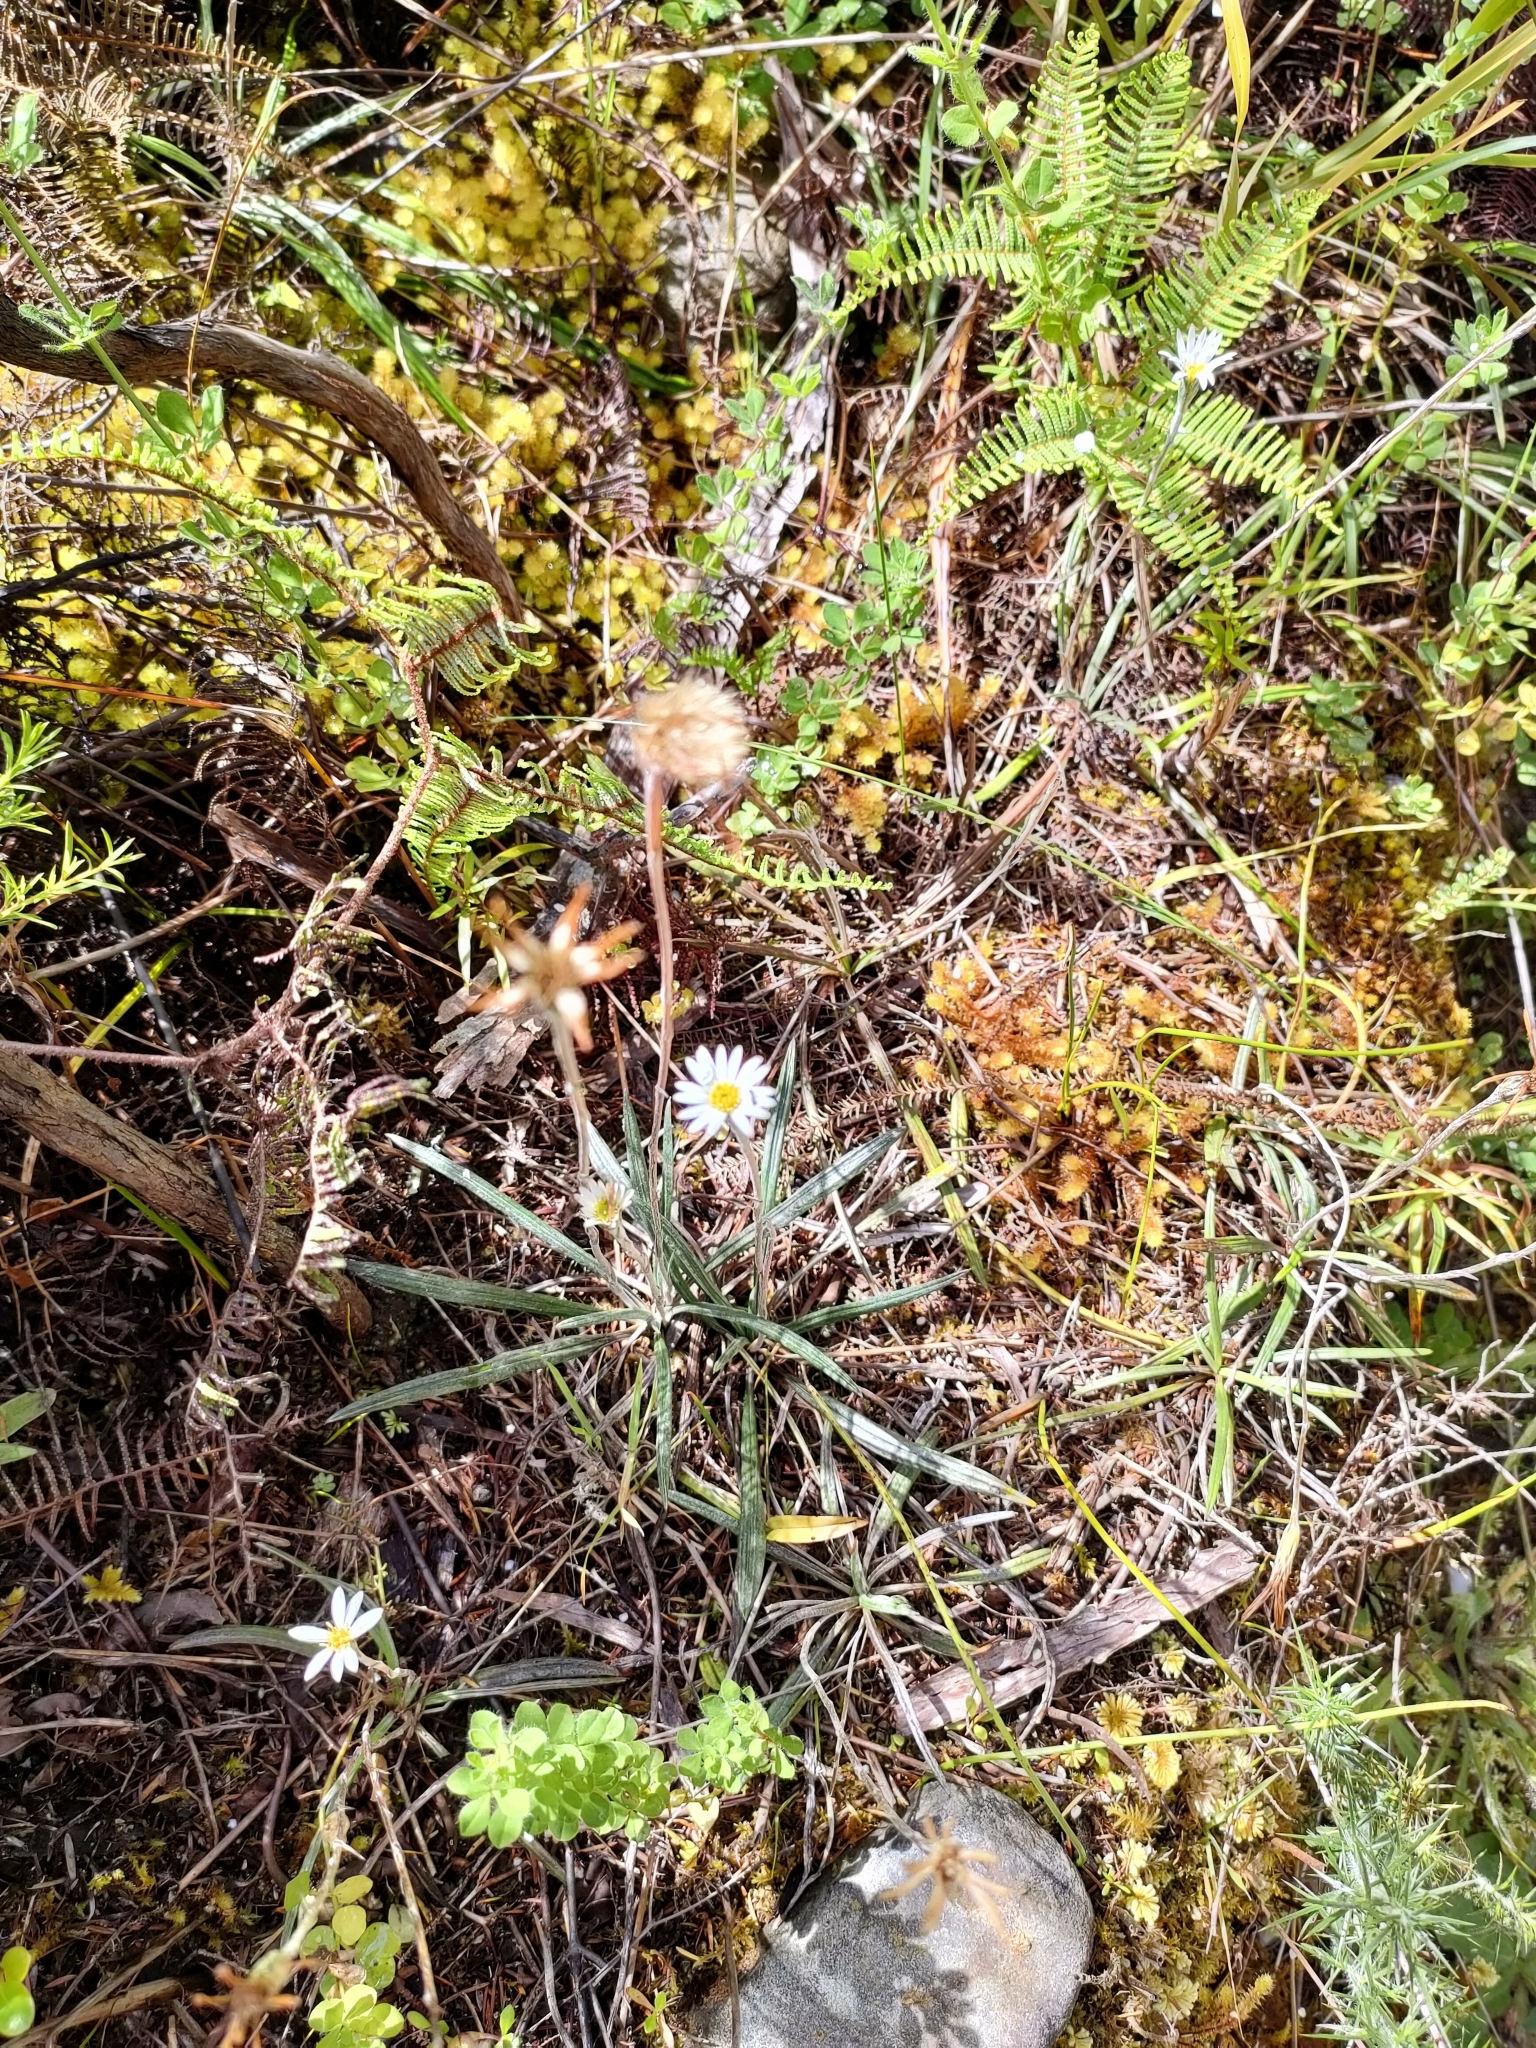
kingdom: Plantae
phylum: Tracheophyta
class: Magnoliopsida
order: Asterales
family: Asteraceae
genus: Celmisia
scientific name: Celmisia gracilenta
